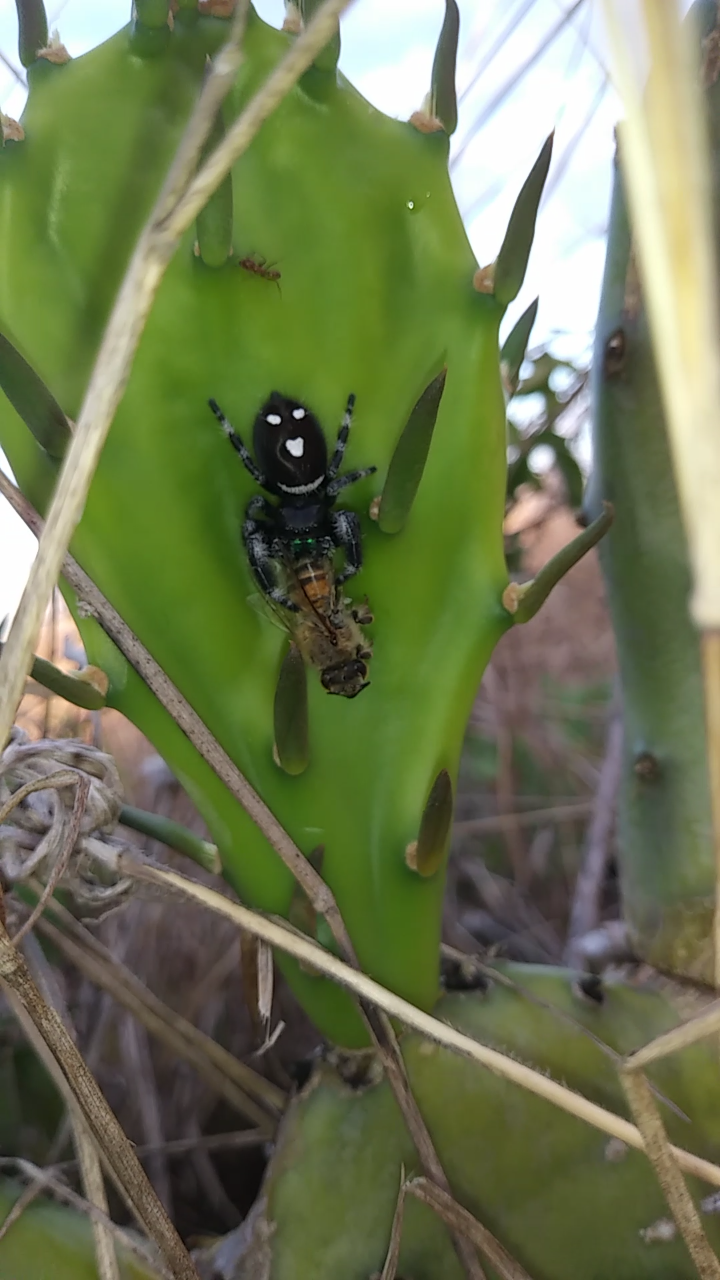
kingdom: Animalia
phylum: Arthropoda
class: Arachnida
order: Araneae
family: Salticidae
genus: Phidippus
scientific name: Phidippus regius
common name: Regal jumper
